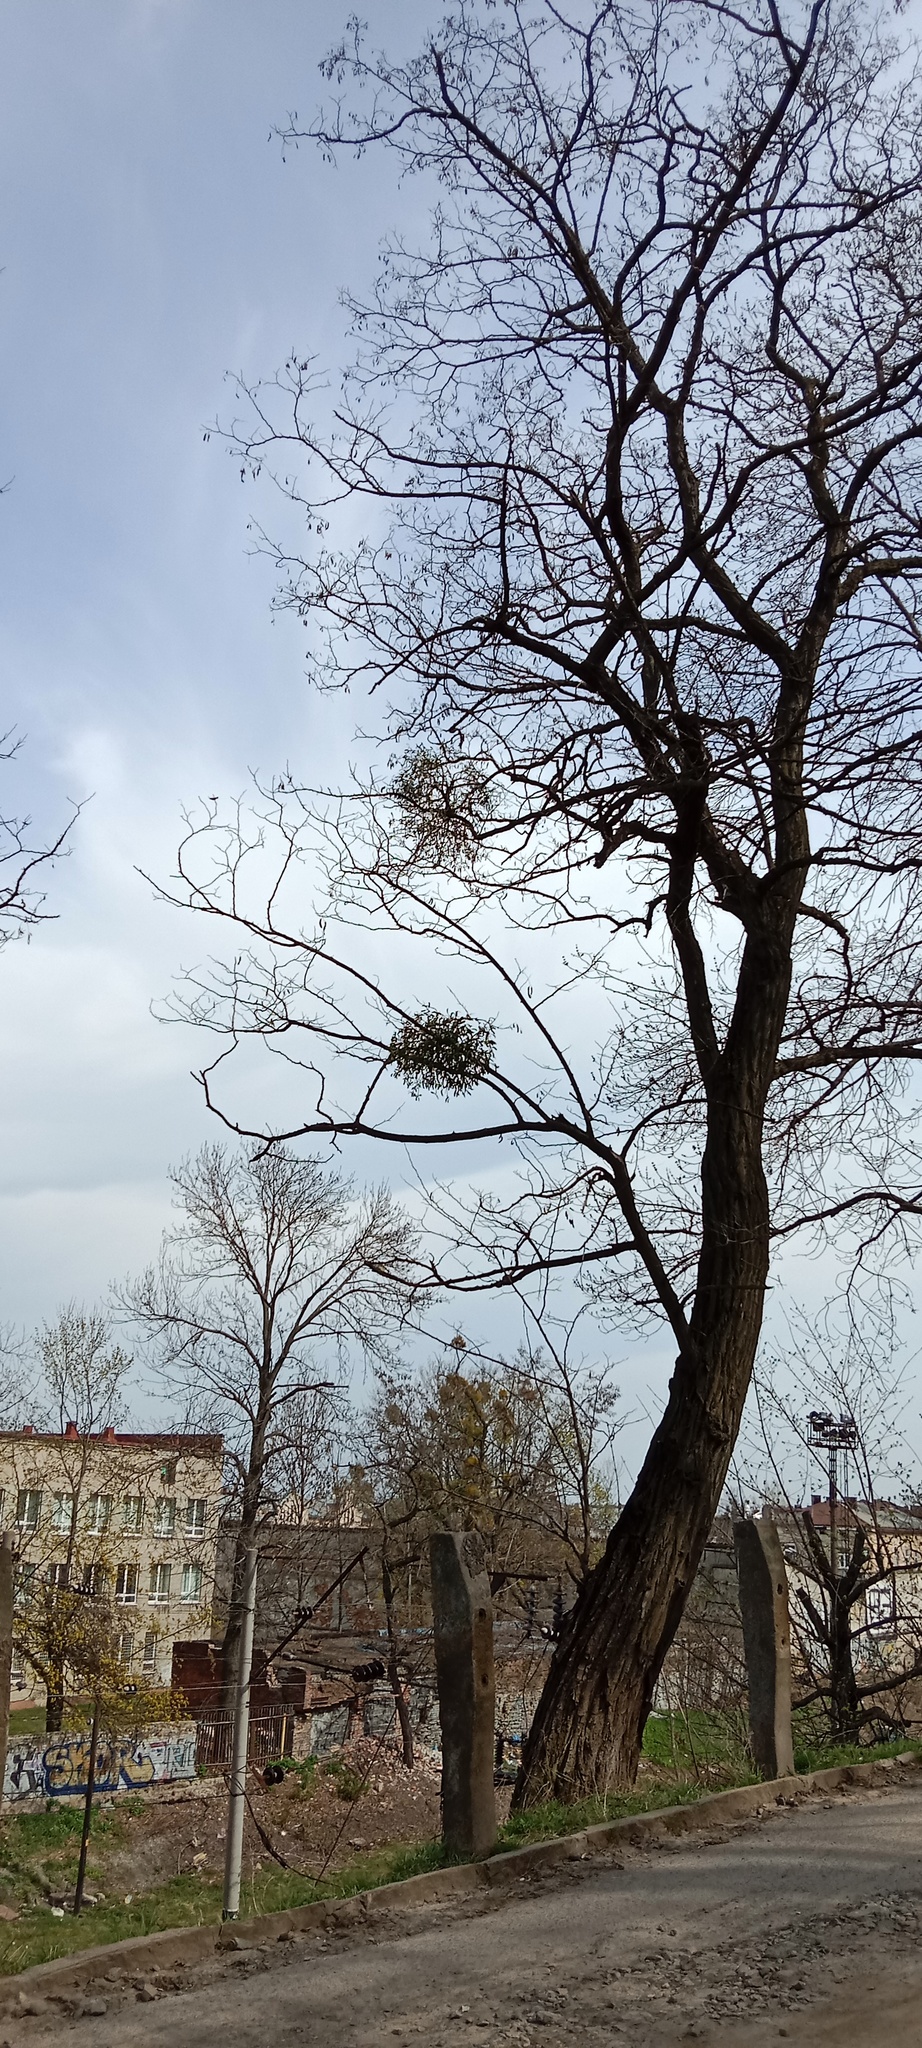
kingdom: Plantae
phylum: Tracheophyta
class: Magnoliopsida
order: Santalales
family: Viscaceae
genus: Viscum
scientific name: Viscum album
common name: Mistletoe
